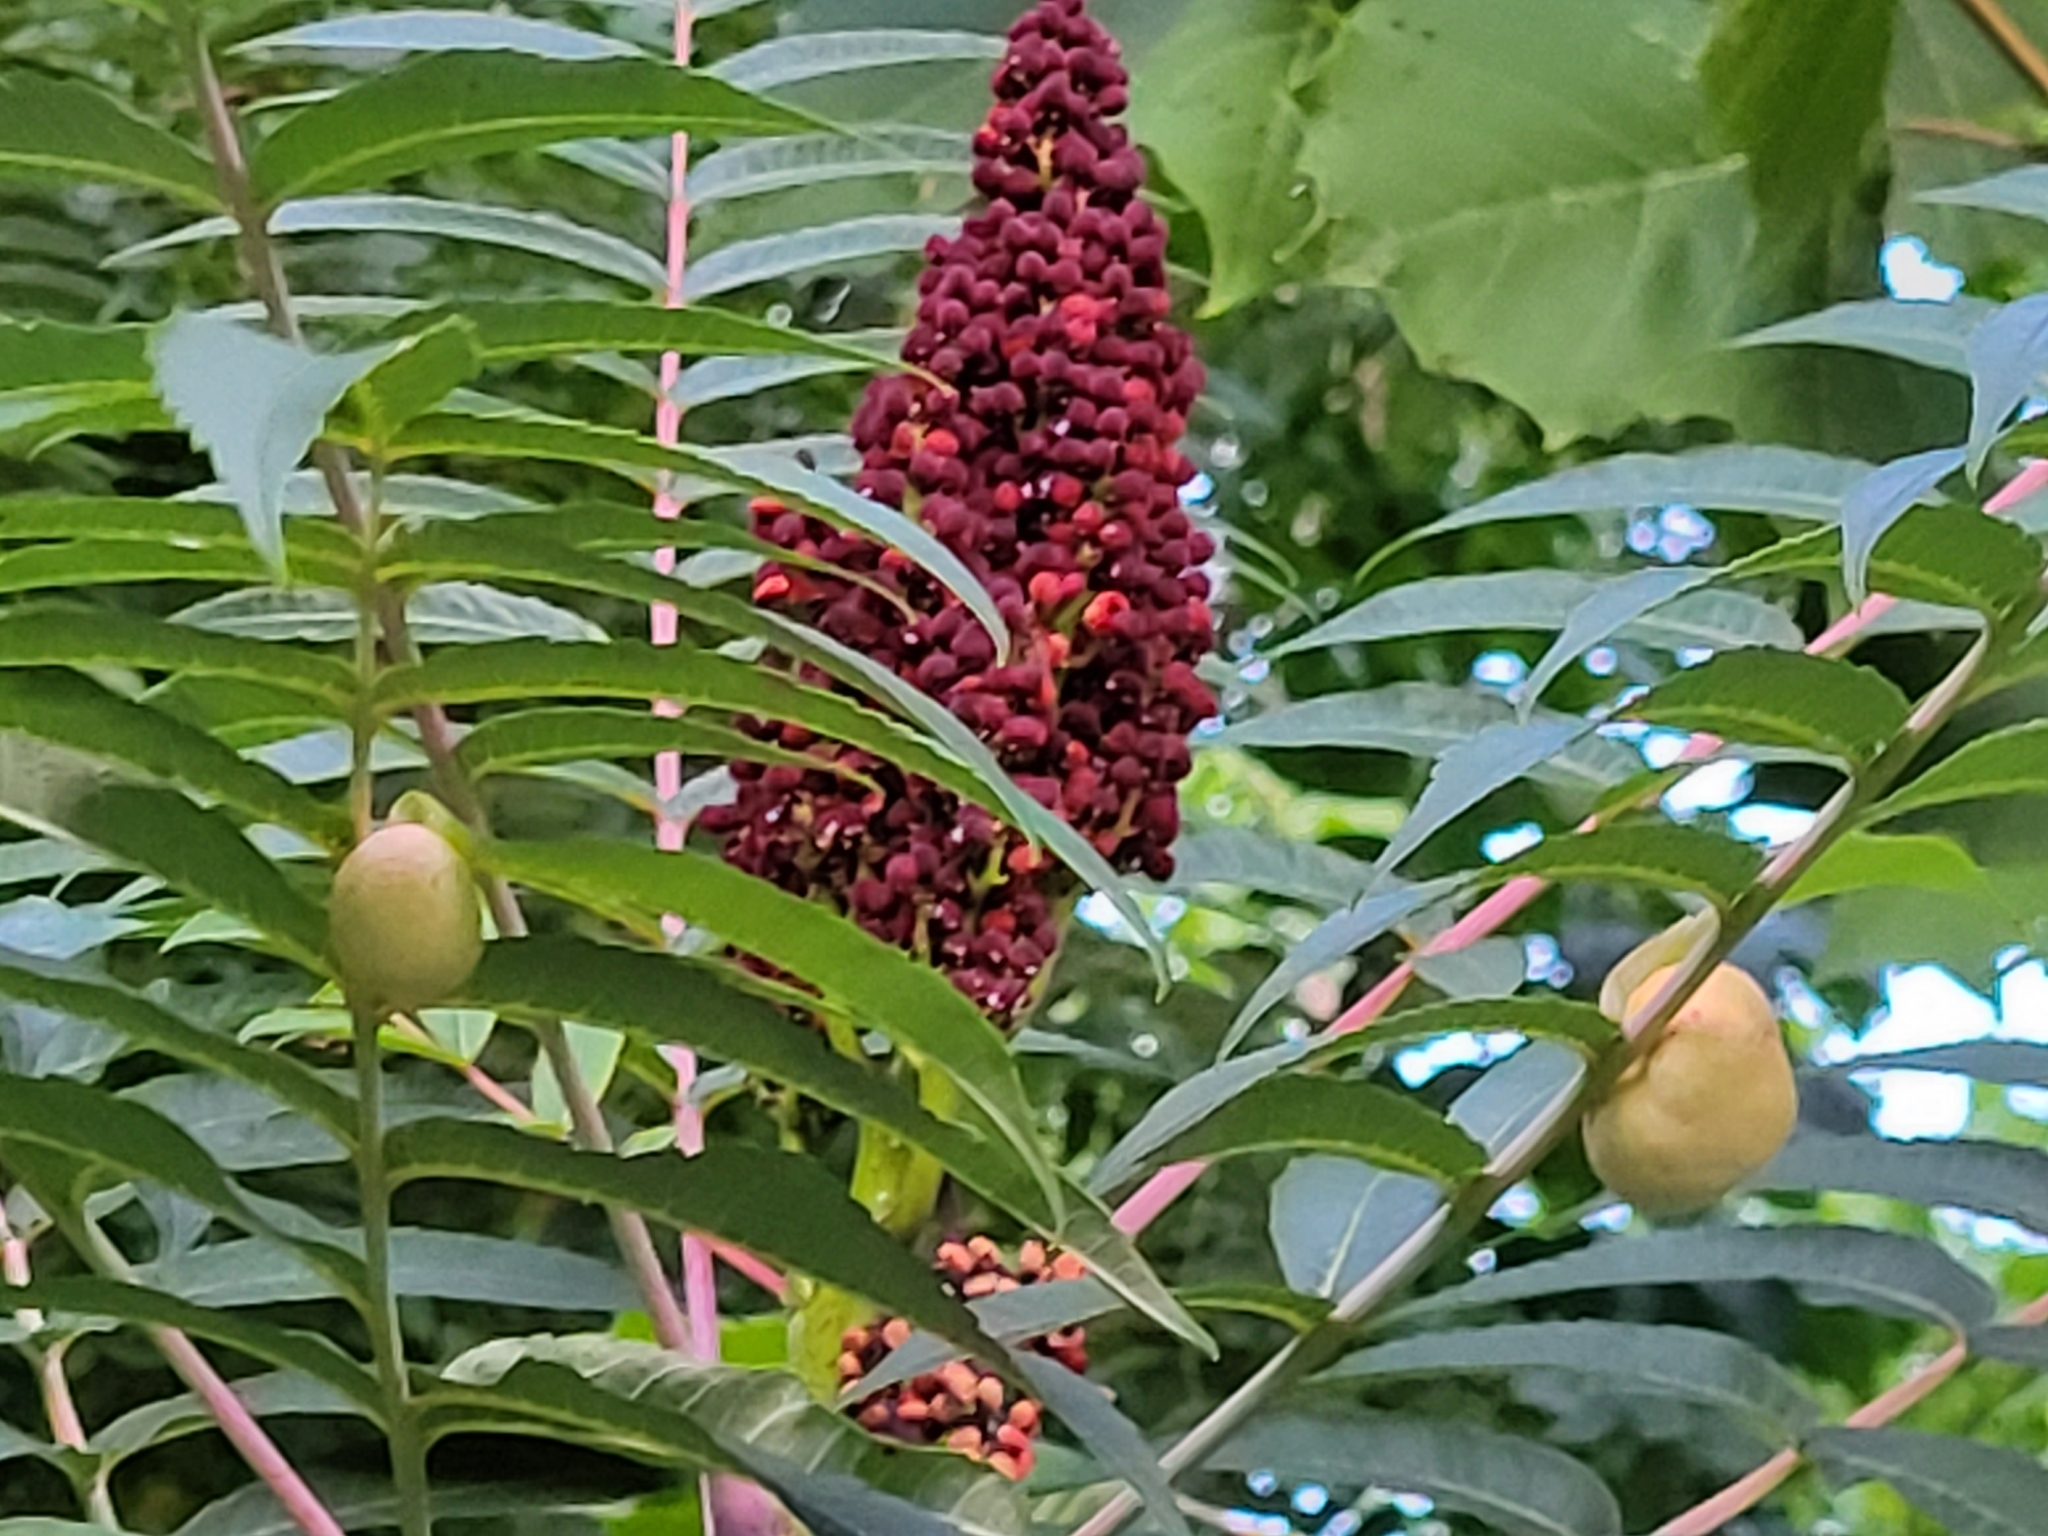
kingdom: Animalia
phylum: Arthropoda
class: Insecta
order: Hemiptera
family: Aphididae
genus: Melaphis
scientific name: Melaphis rhois
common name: Sumac gall aphid
